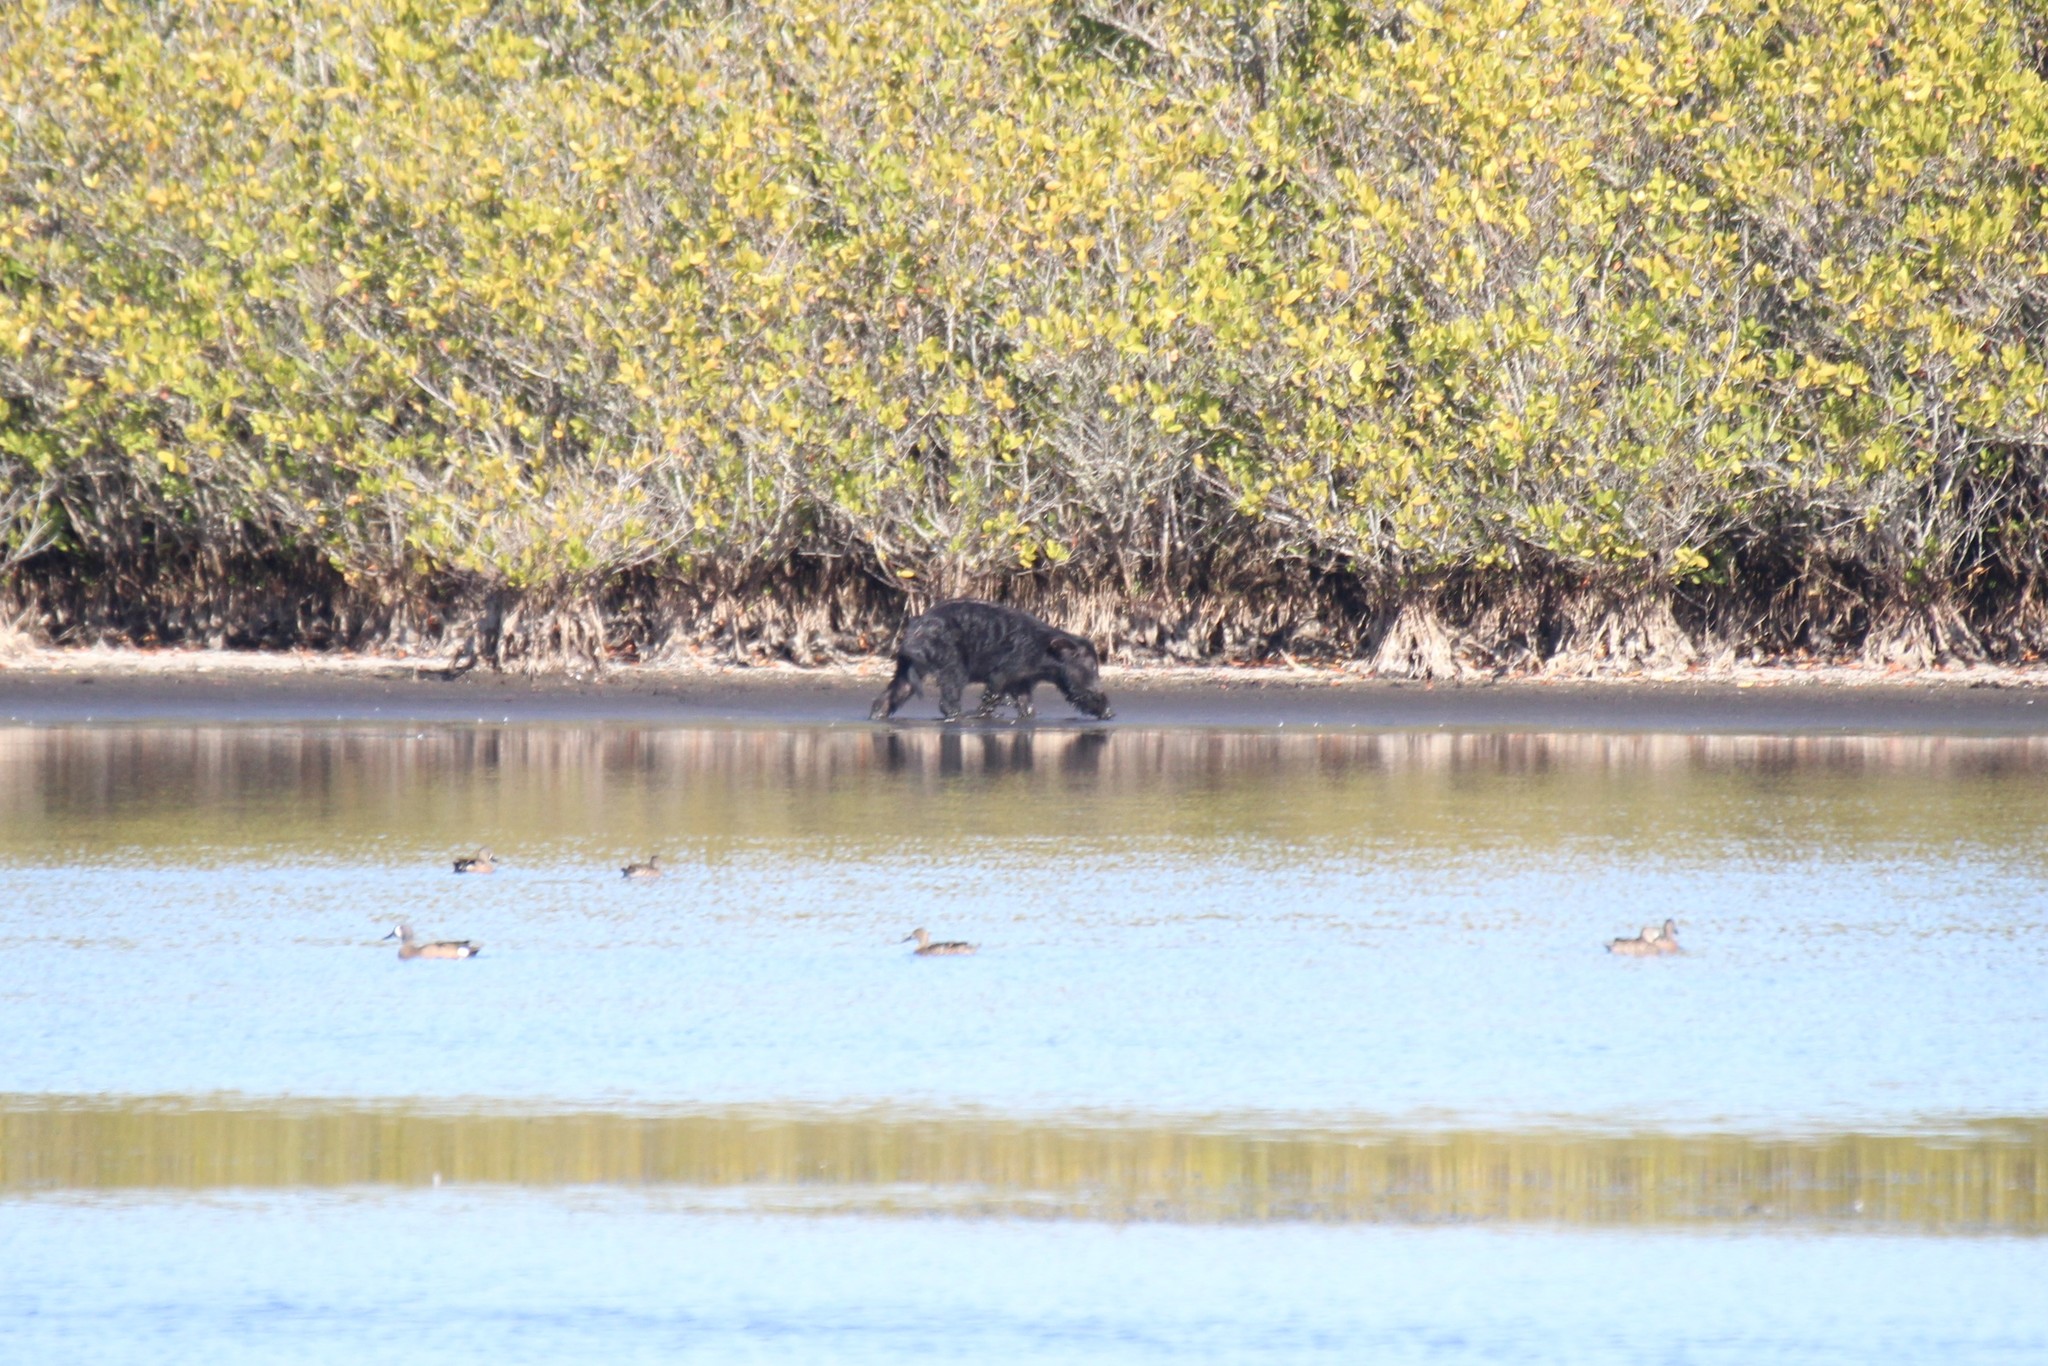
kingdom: Animalia
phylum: Chordata
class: Mammalia
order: Artiodactyla
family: Suidae
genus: Sus
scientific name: Sus scrofa
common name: Wild boar
